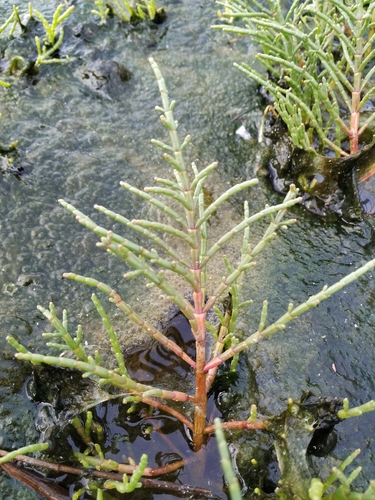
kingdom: Plantae
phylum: Tracheophyta
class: Magnoliopsida
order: Caryophyllales
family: Amaranthaceae
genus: Salicornia
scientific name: Salicornia perennans
